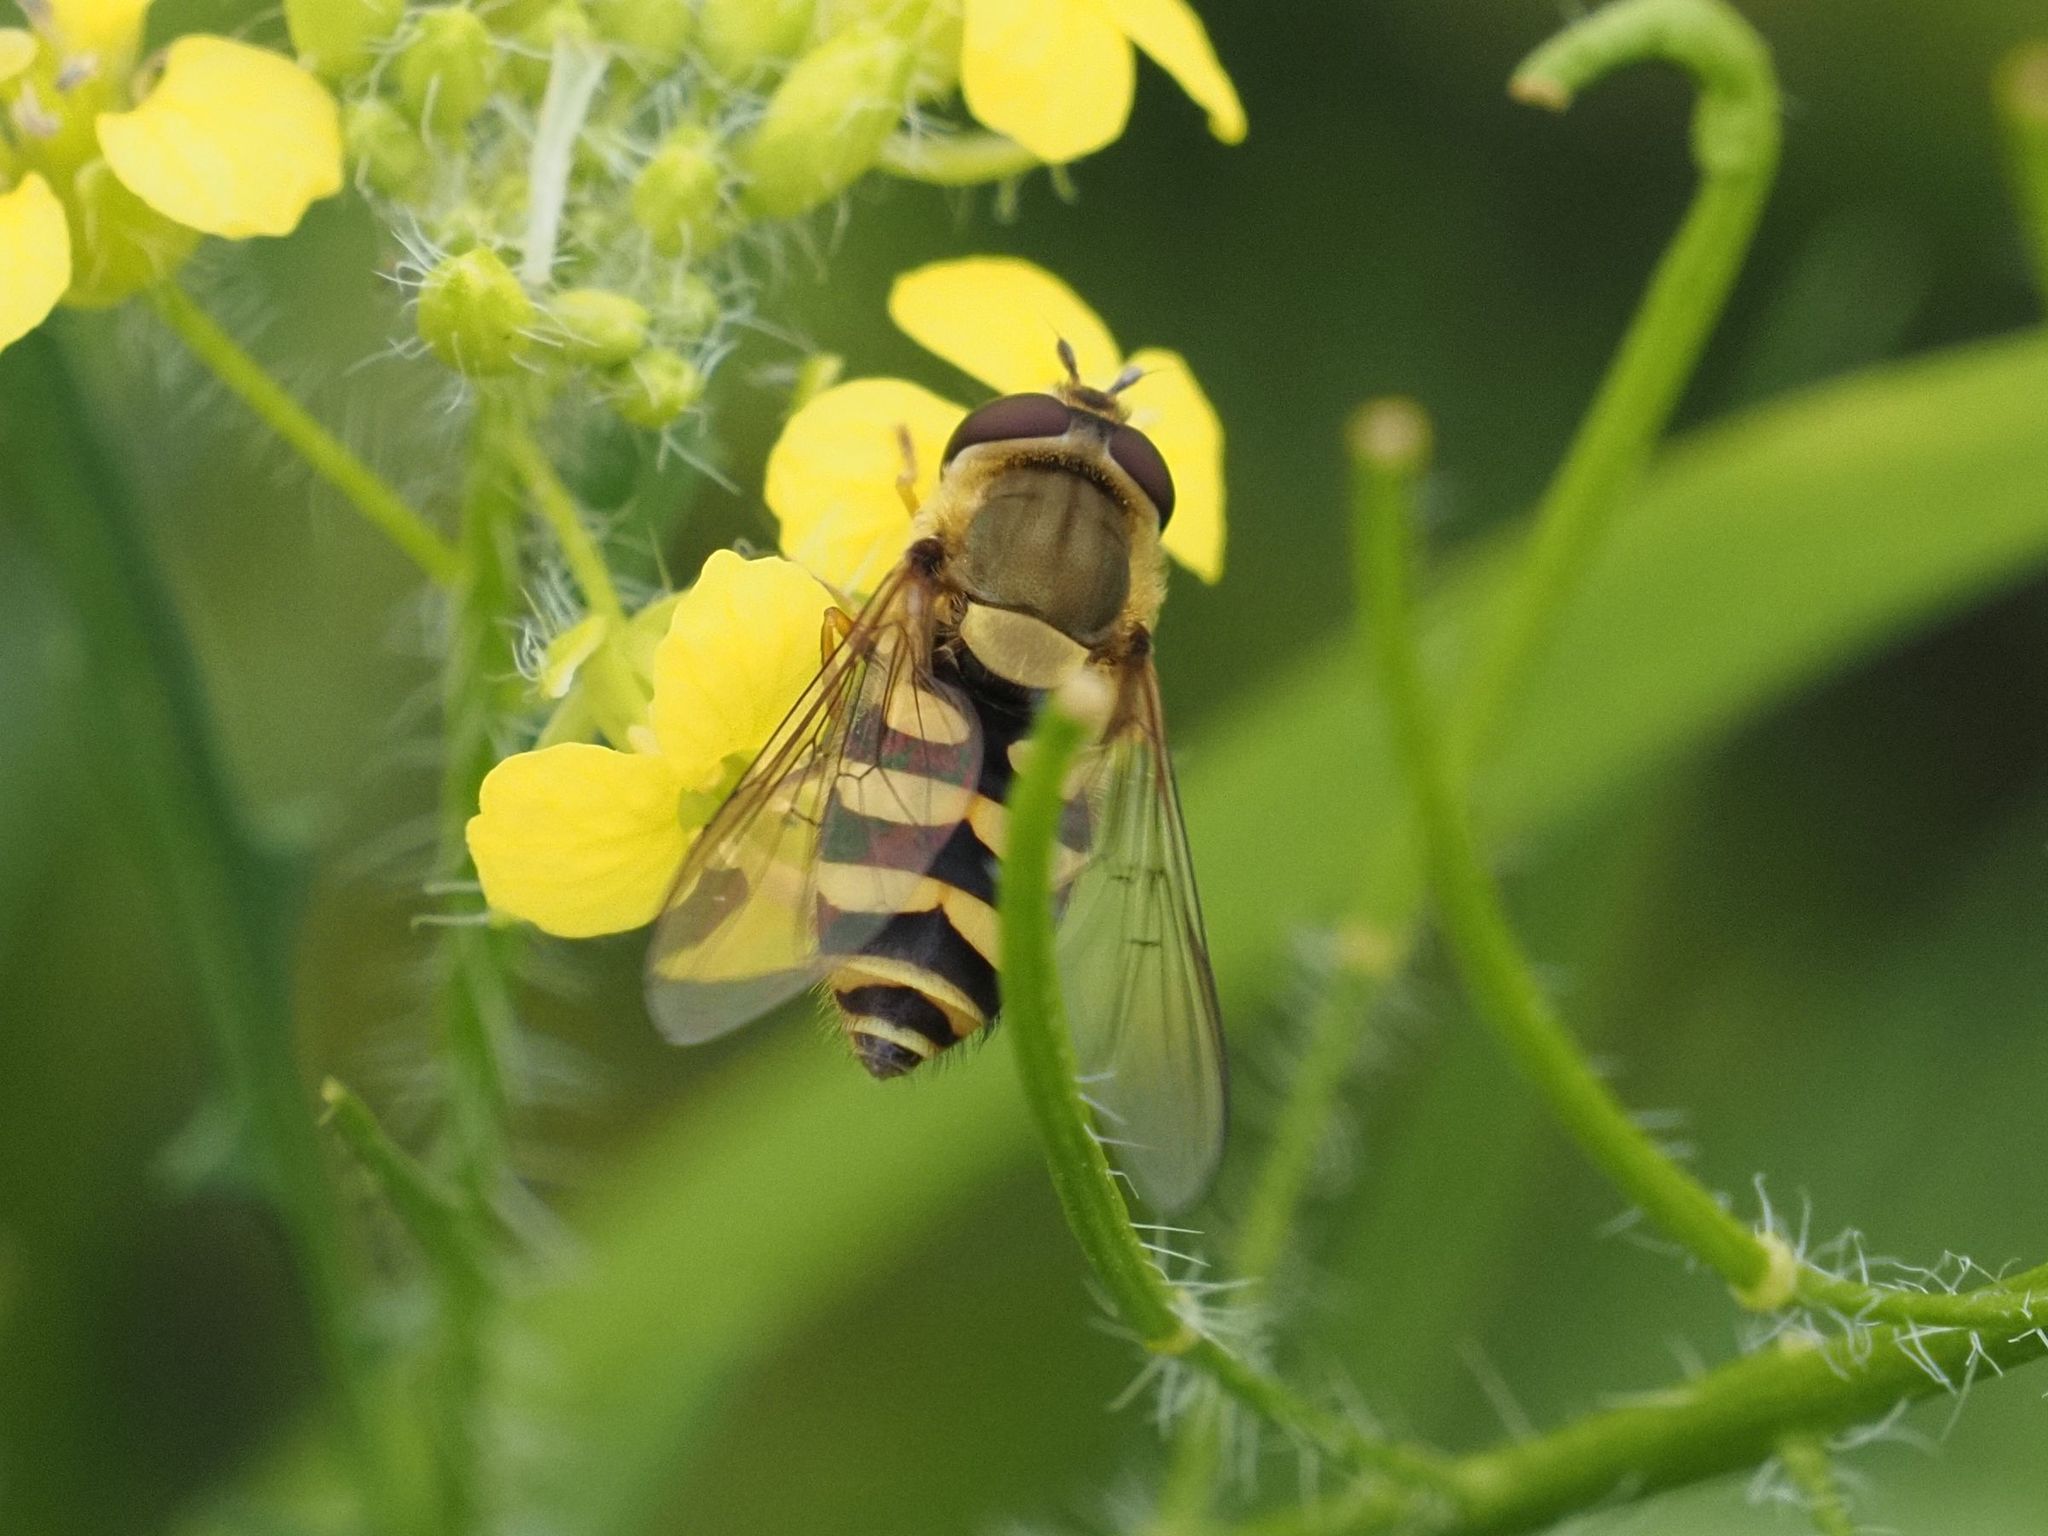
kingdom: Animalia
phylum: Arthropoda
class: Insecta
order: Diptera
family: Syrphidae
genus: Syrphus
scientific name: Syrphus
